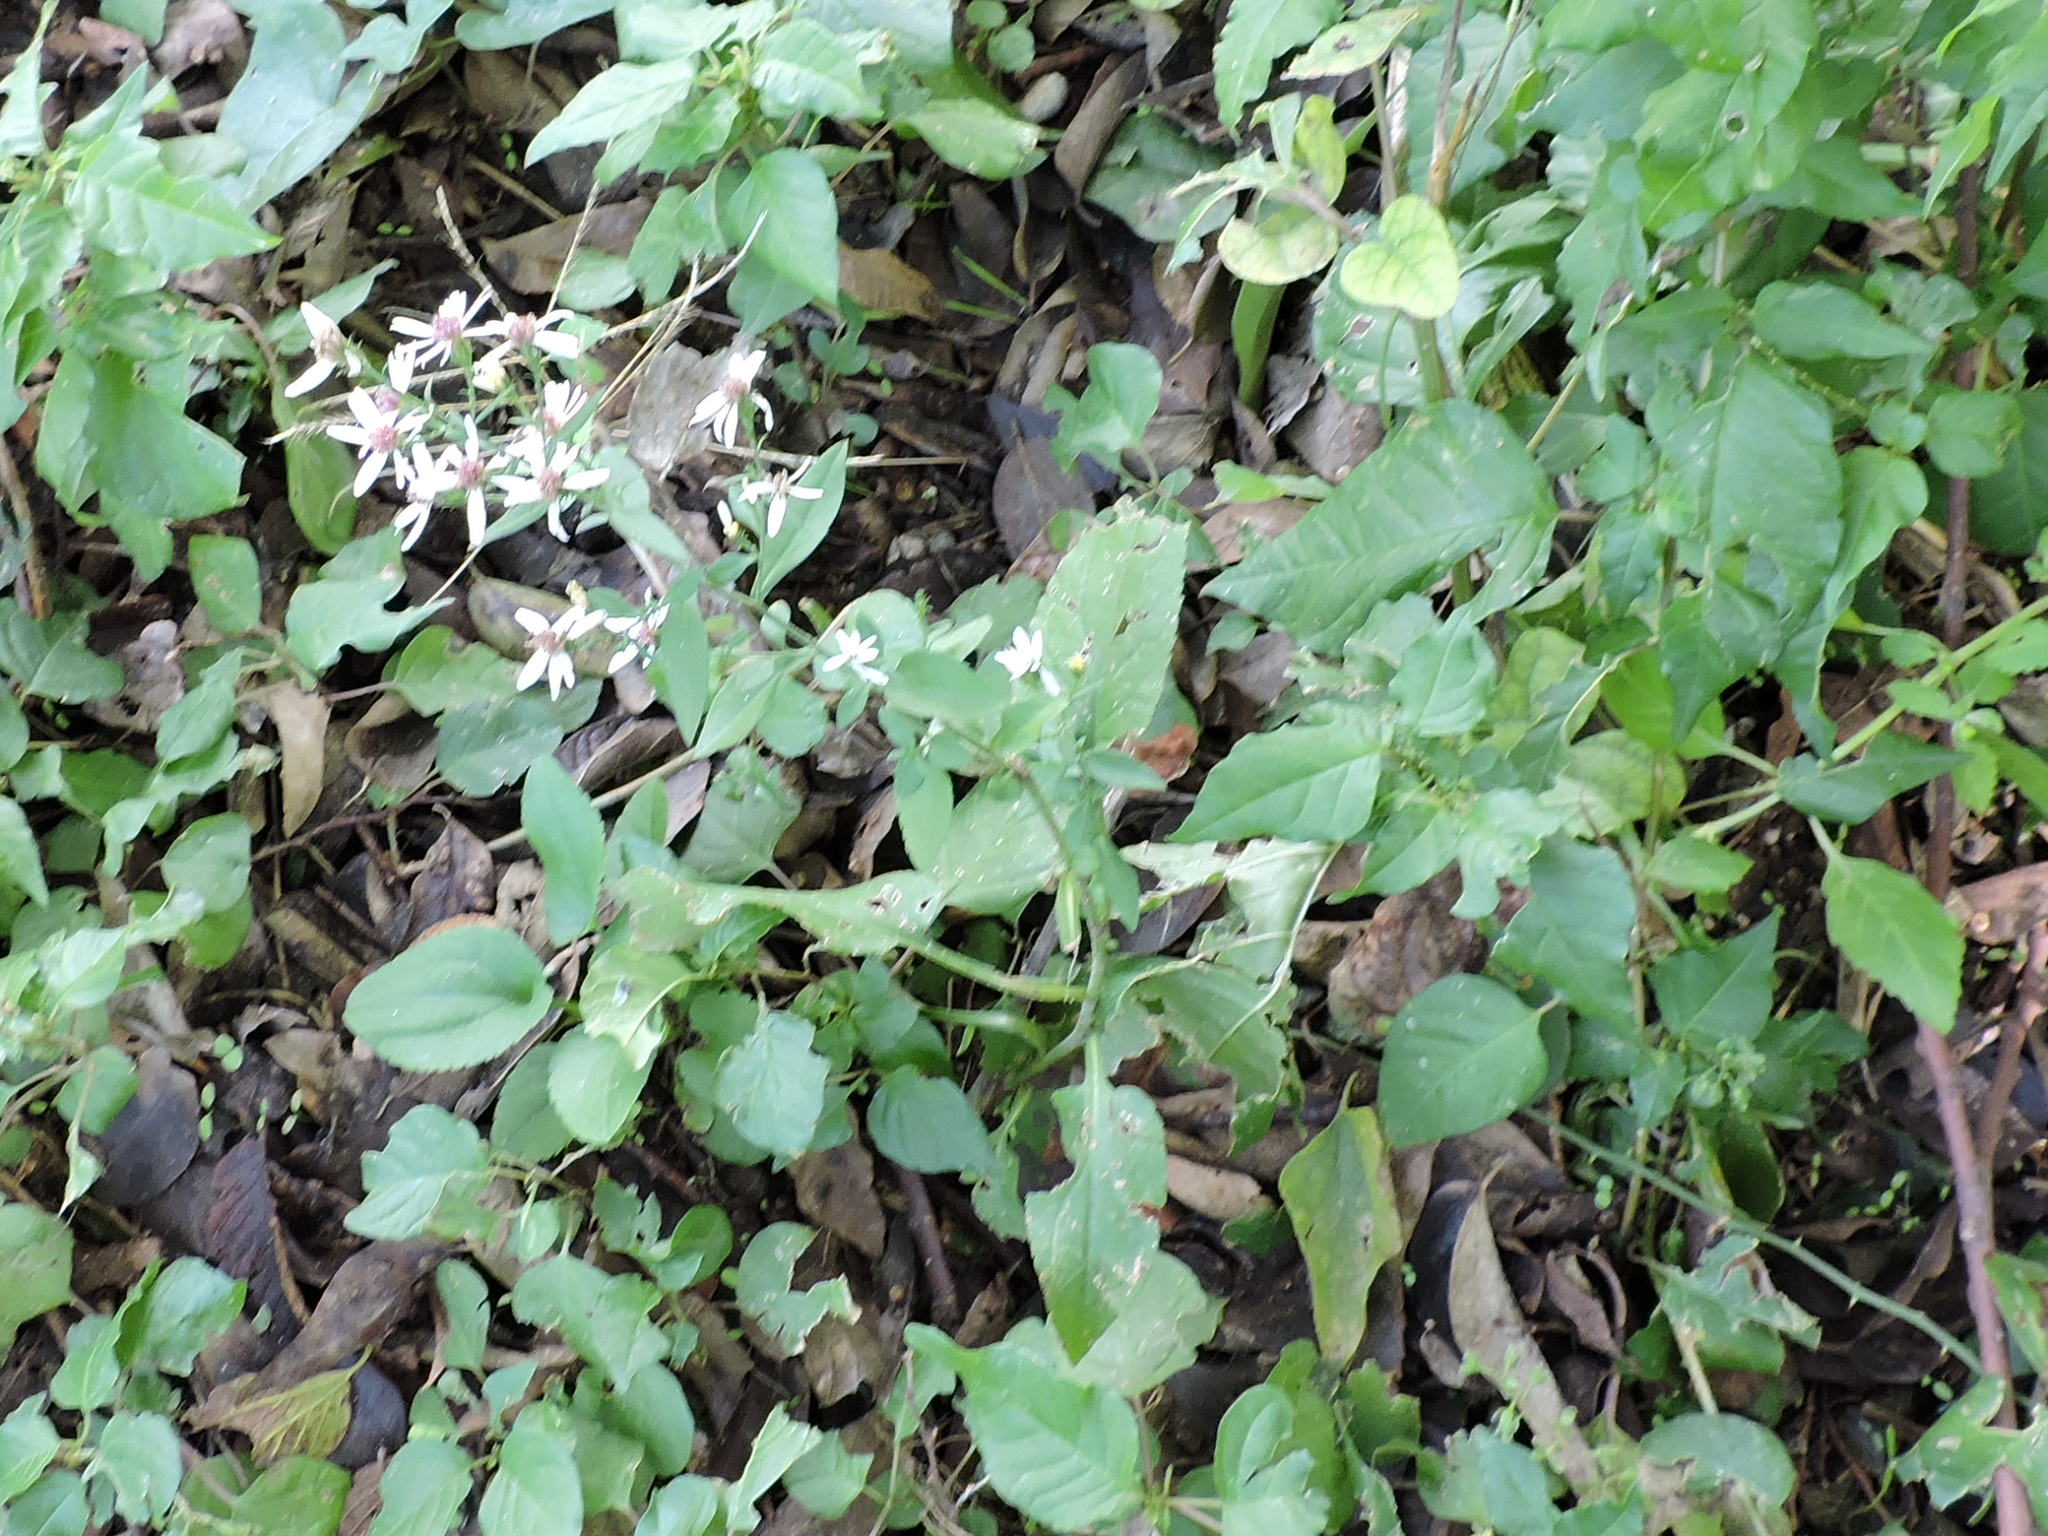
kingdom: Plantae
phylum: Tracheophyta
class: Magnoliopsida
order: Asterales
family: Asteraceae
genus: Symphyotrichum
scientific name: Symphyotrichum drummondii
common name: Drummond's aster
